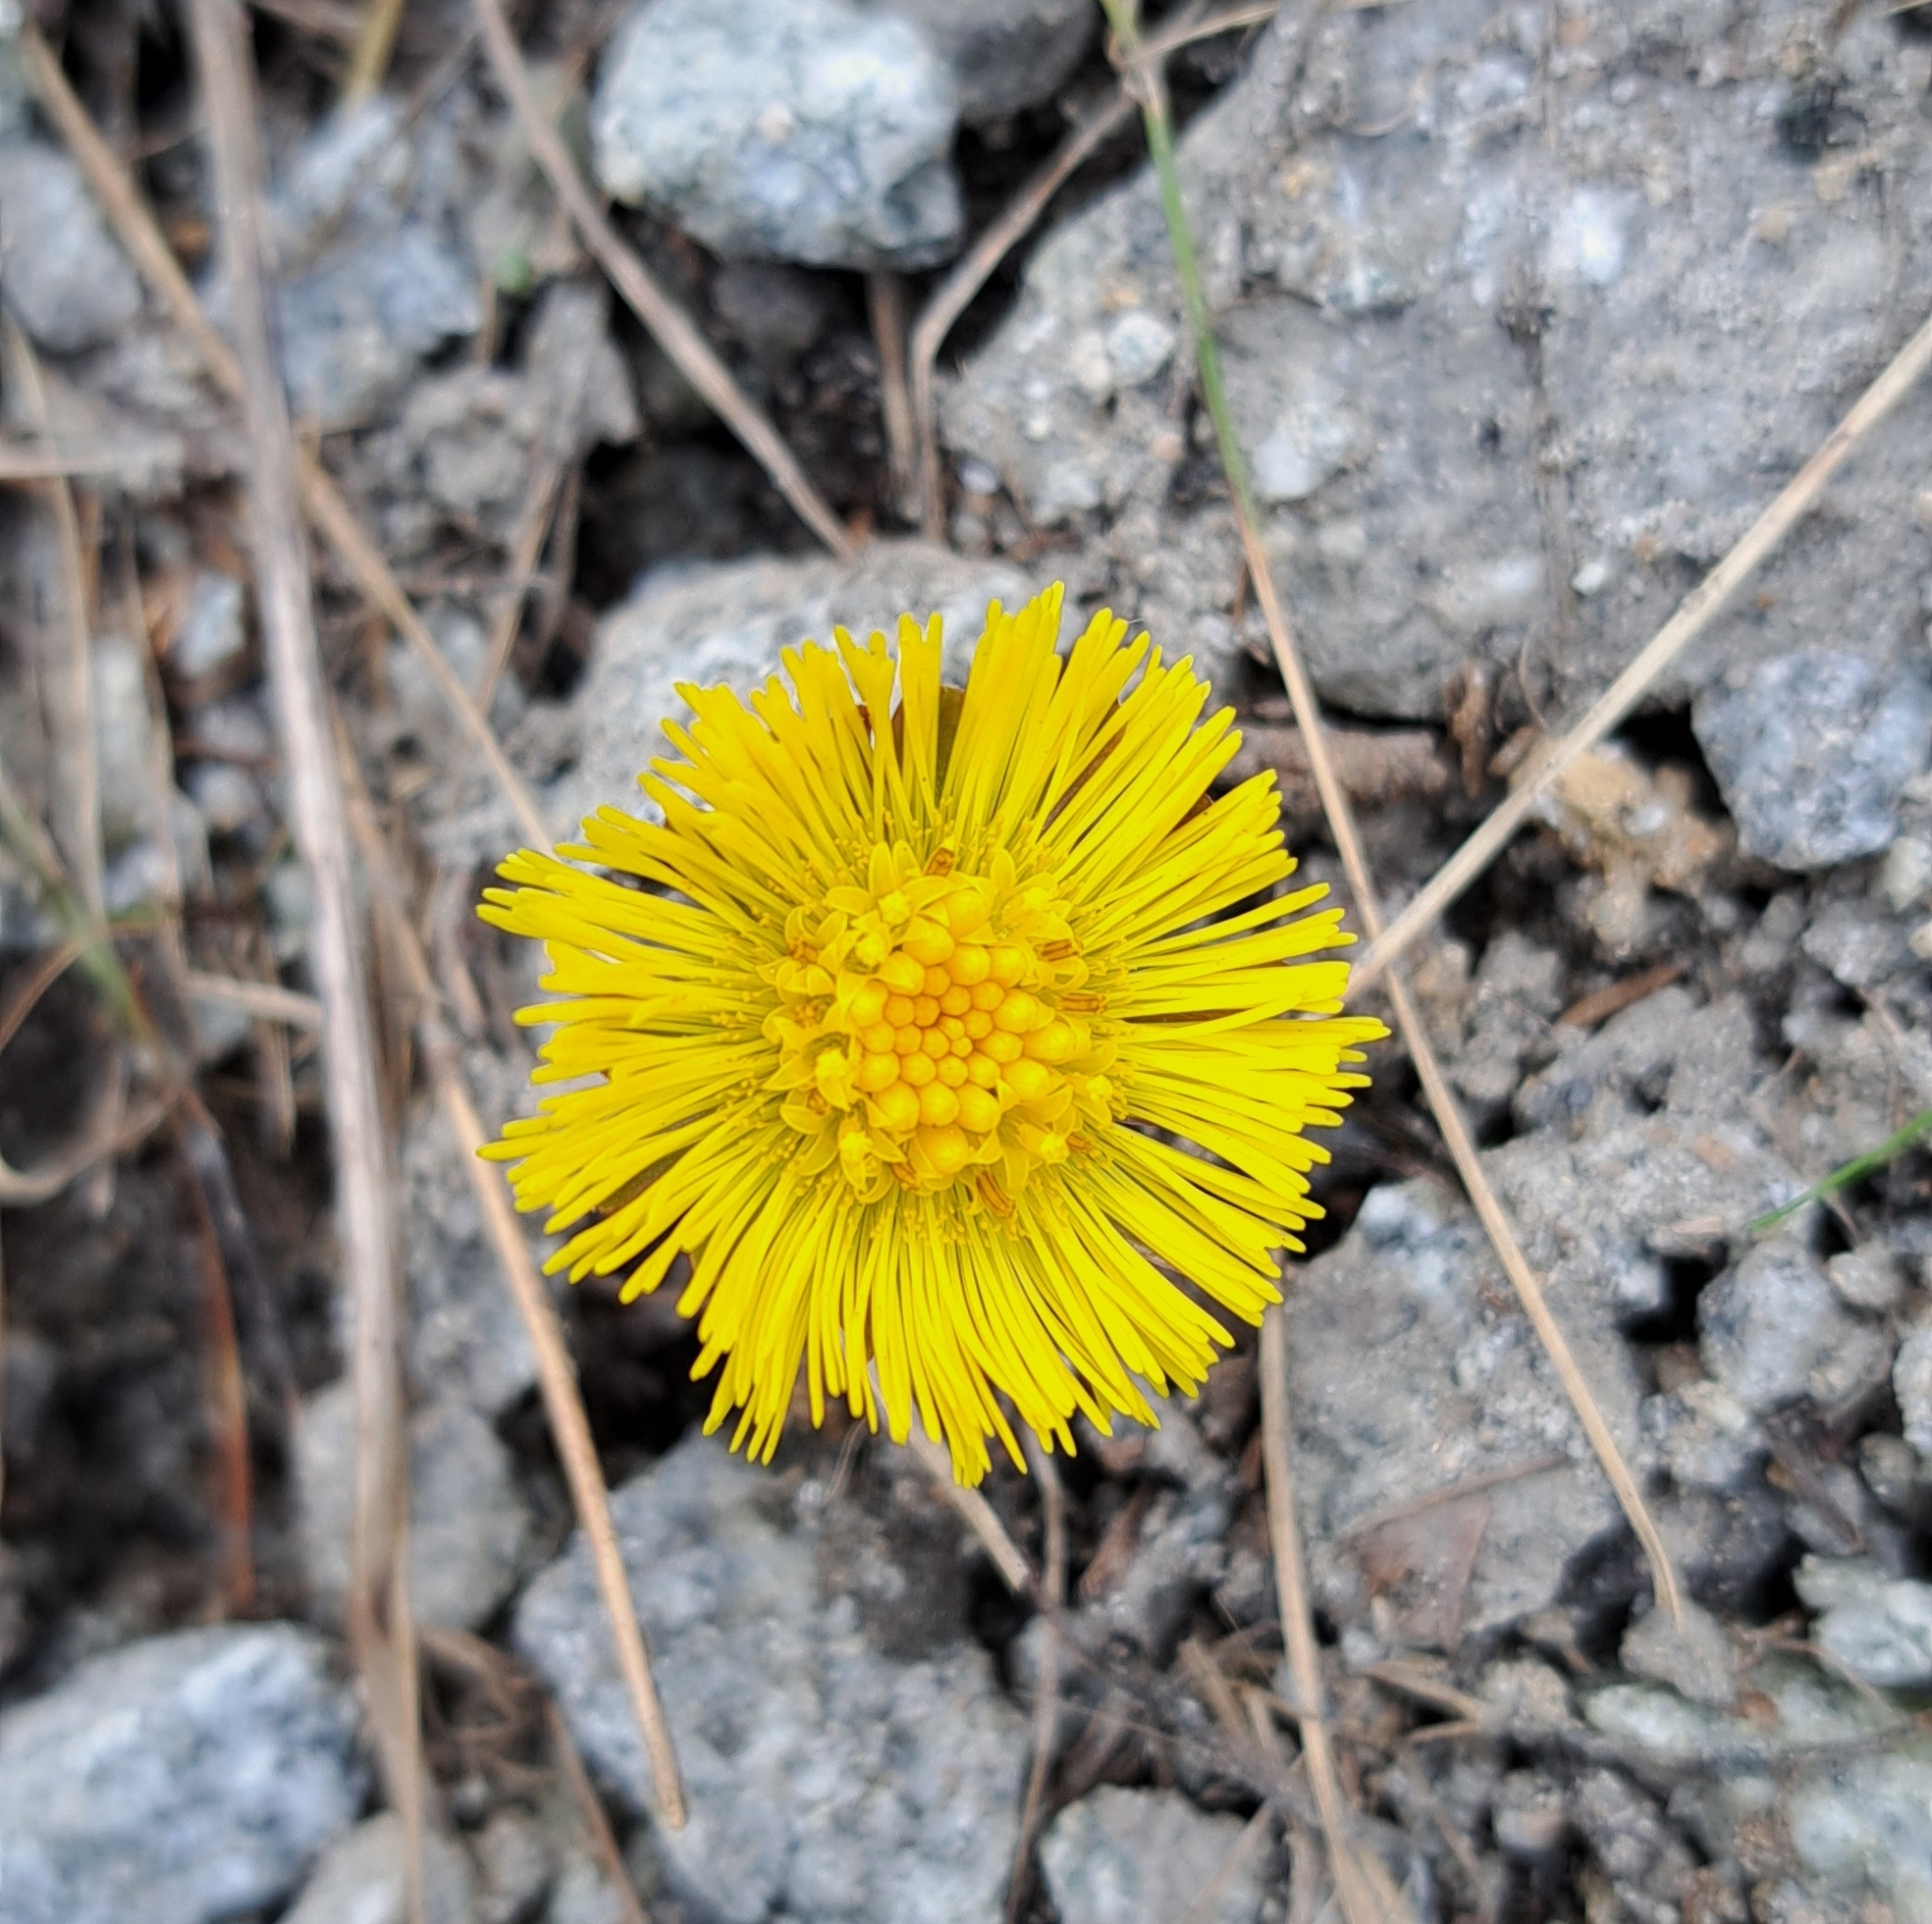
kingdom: Plantae
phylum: Tracheophyta
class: Magnoliopsida
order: Asterales
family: Asteraceae
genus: Tussilago
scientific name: Tussilago farfara
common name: Coltsfoot
